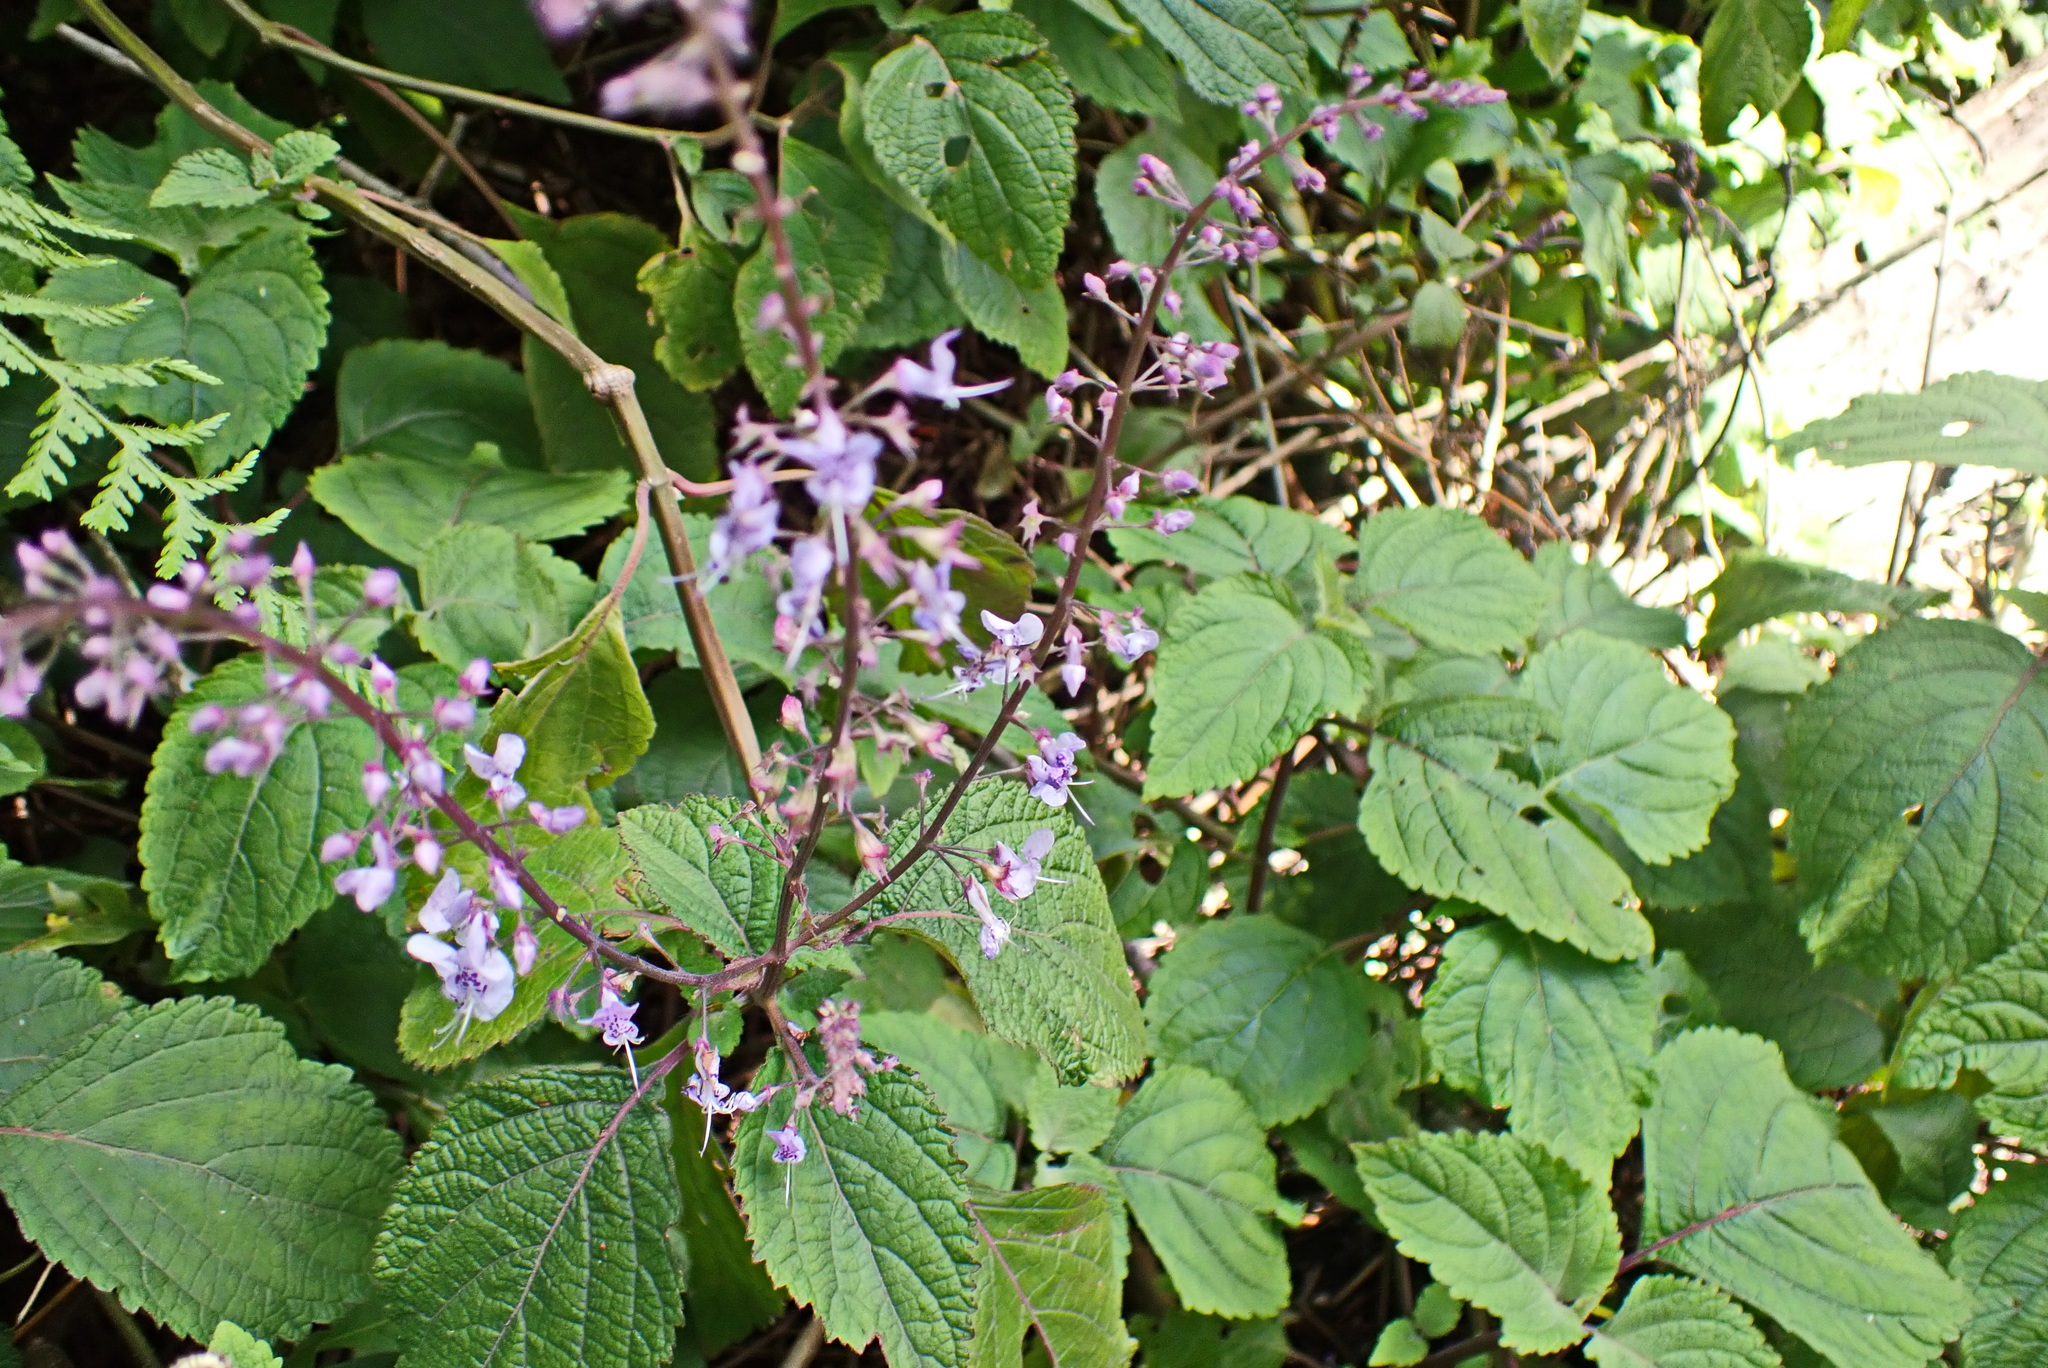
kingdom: Plantae
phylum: Tracheophyta
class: Magnoliopsida
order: Lamiales
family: Lamiaceae
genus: Plectranthus
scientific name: Plectranthus fruticosus
